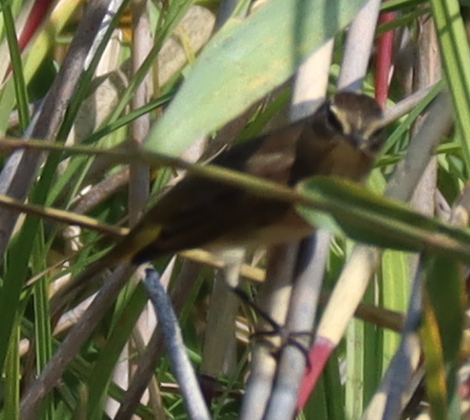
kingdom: Animalia
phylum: Chordata
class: Aves
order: Passeriformes
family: Parulidae
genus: Setophaga
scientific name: Setophaga palmarum
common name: Palm warbler
